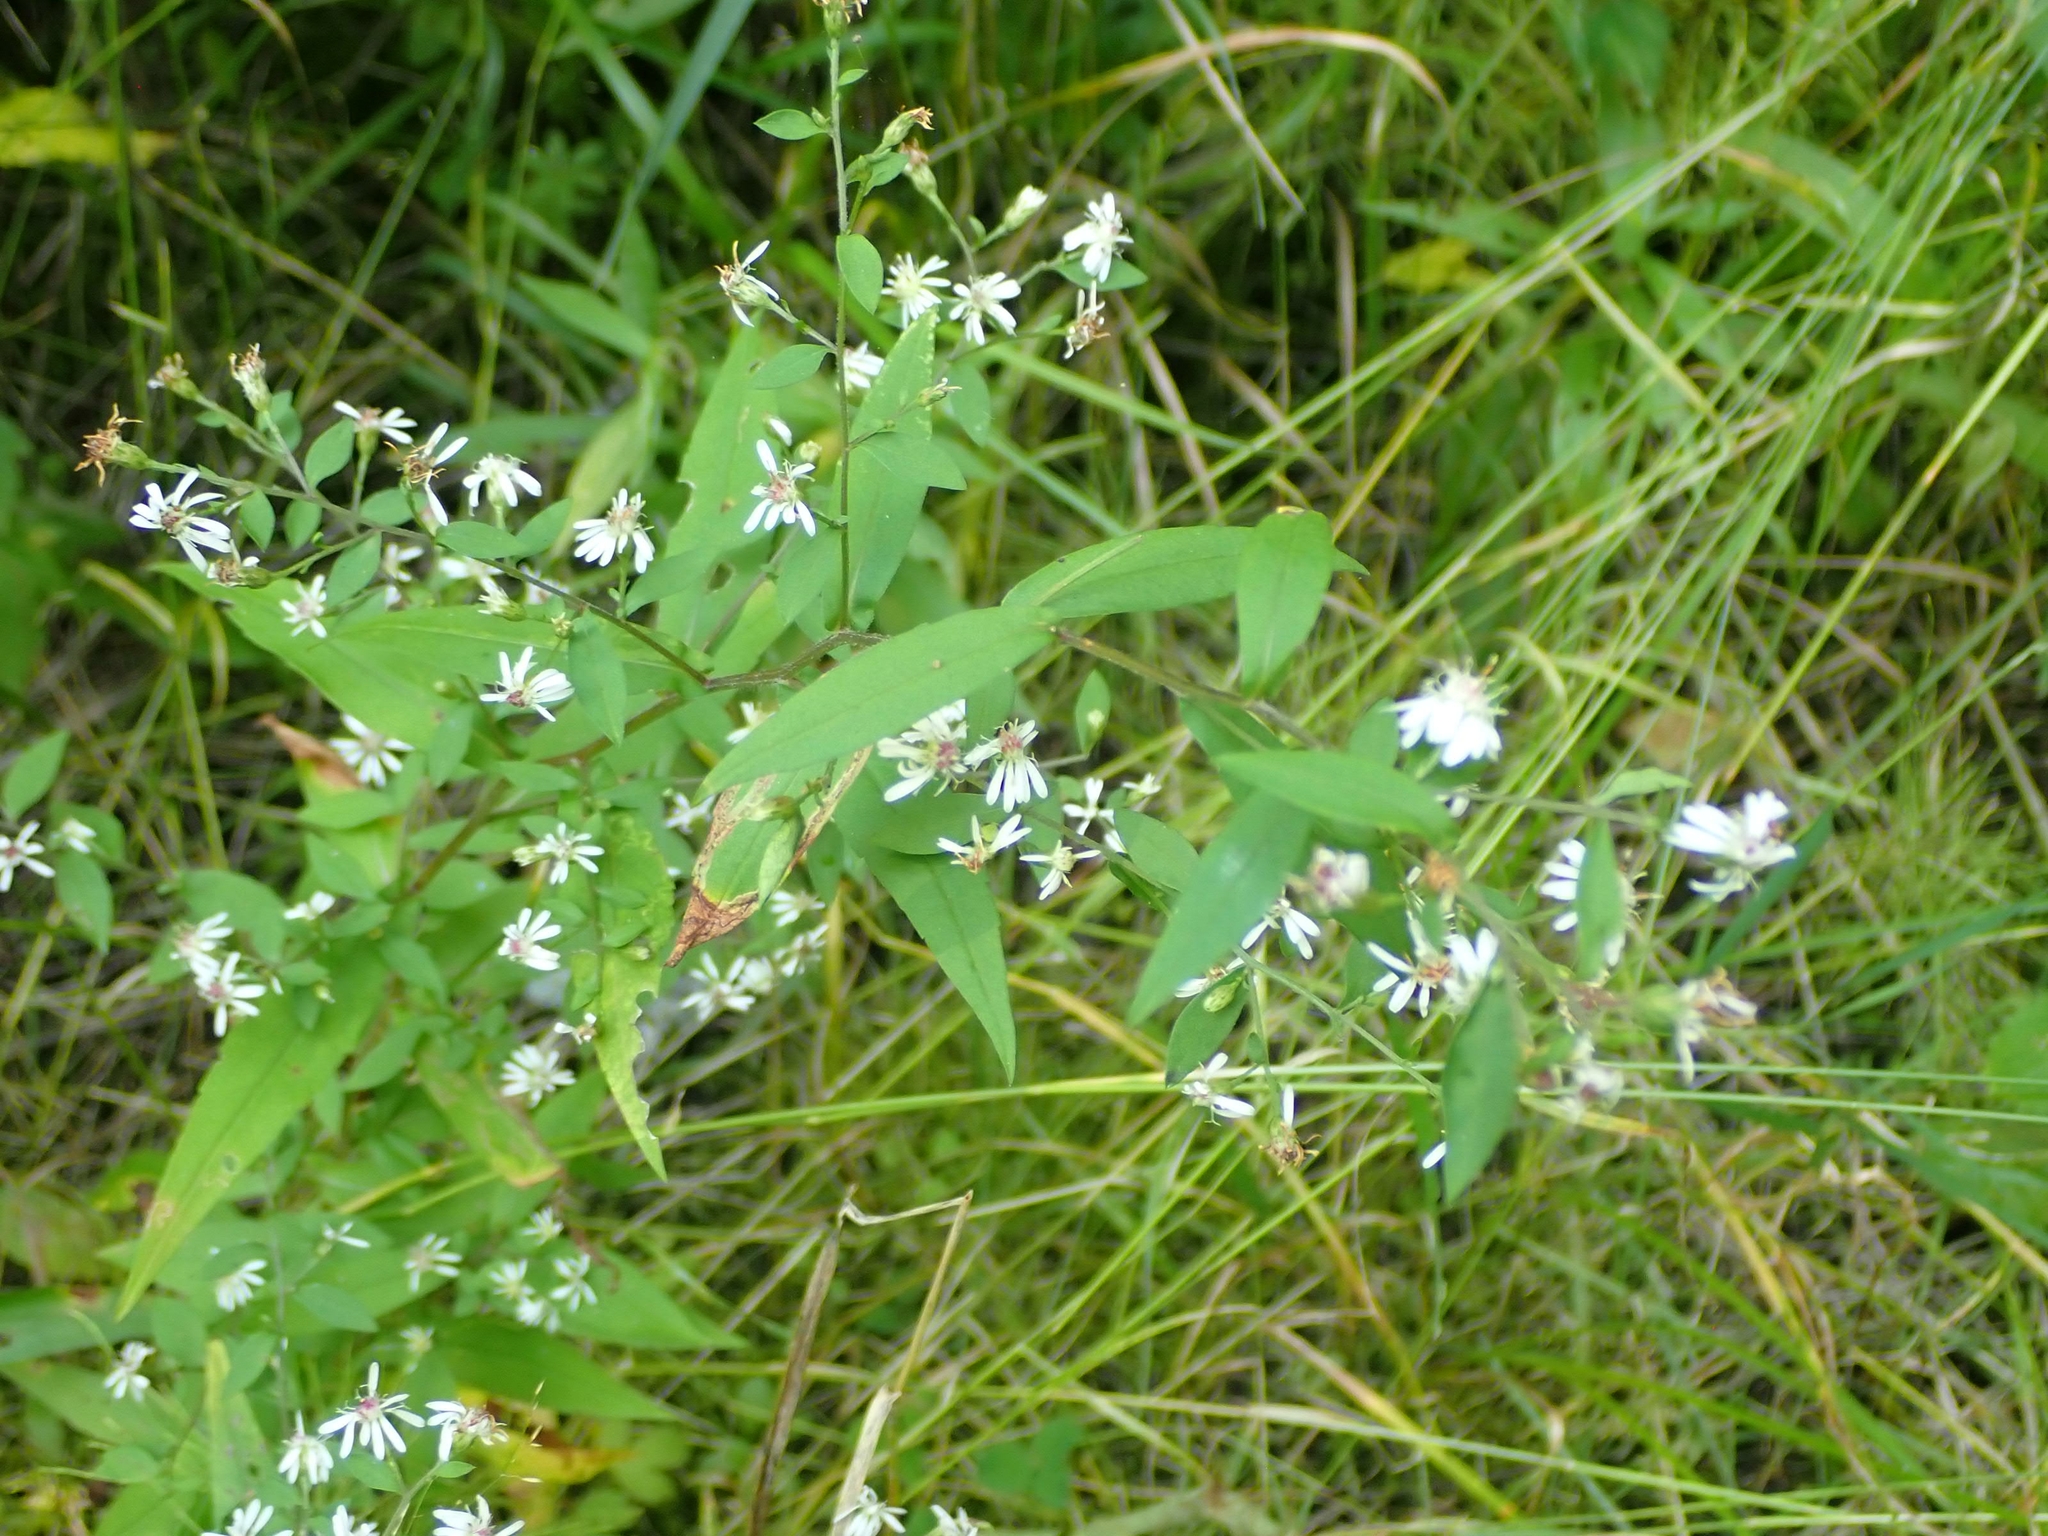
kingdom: Plantae
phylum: Tracheophyta
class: Magnoliopsida
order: Asterales
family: Asteraceae
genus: Symphyotrichum
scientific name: Symphyotrichum lateriflorum
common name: Calico aster
